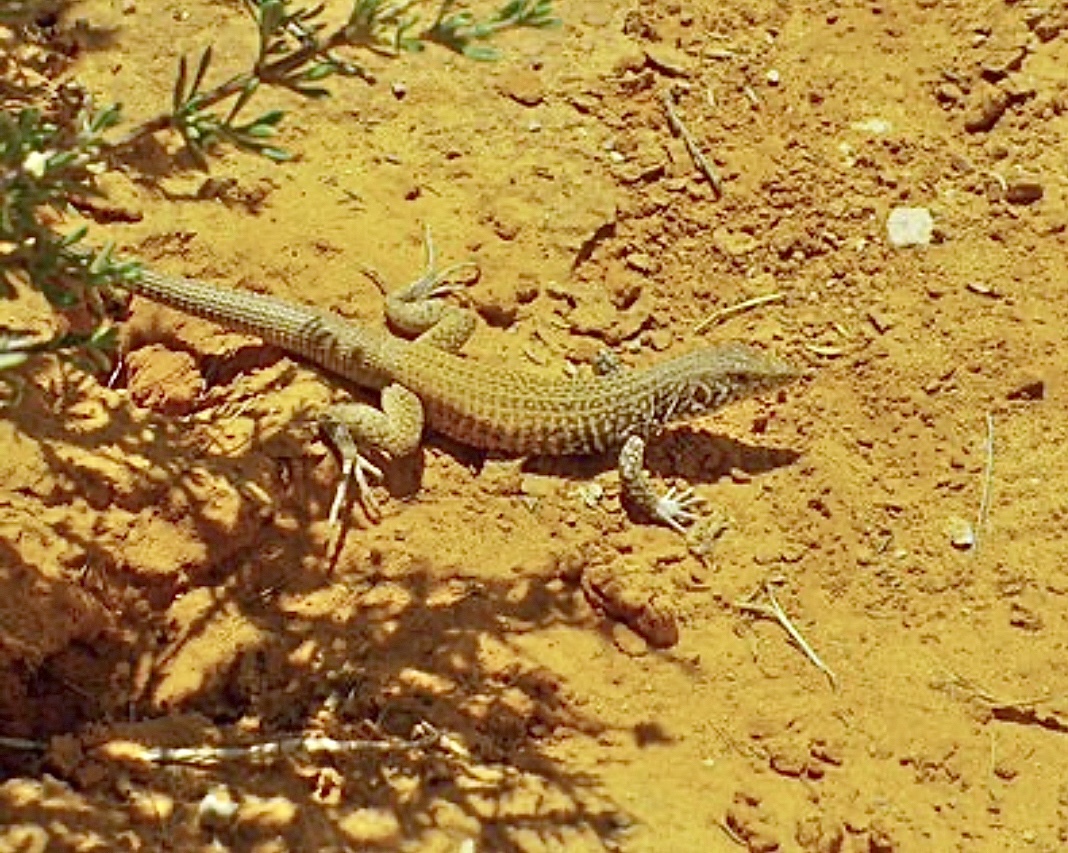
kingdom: Animalia
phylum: Chordata
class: Squamata
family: Teiidae
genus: Aspidoscelis
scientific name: Aspidoscelis tigris
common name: Tiger whiptail
